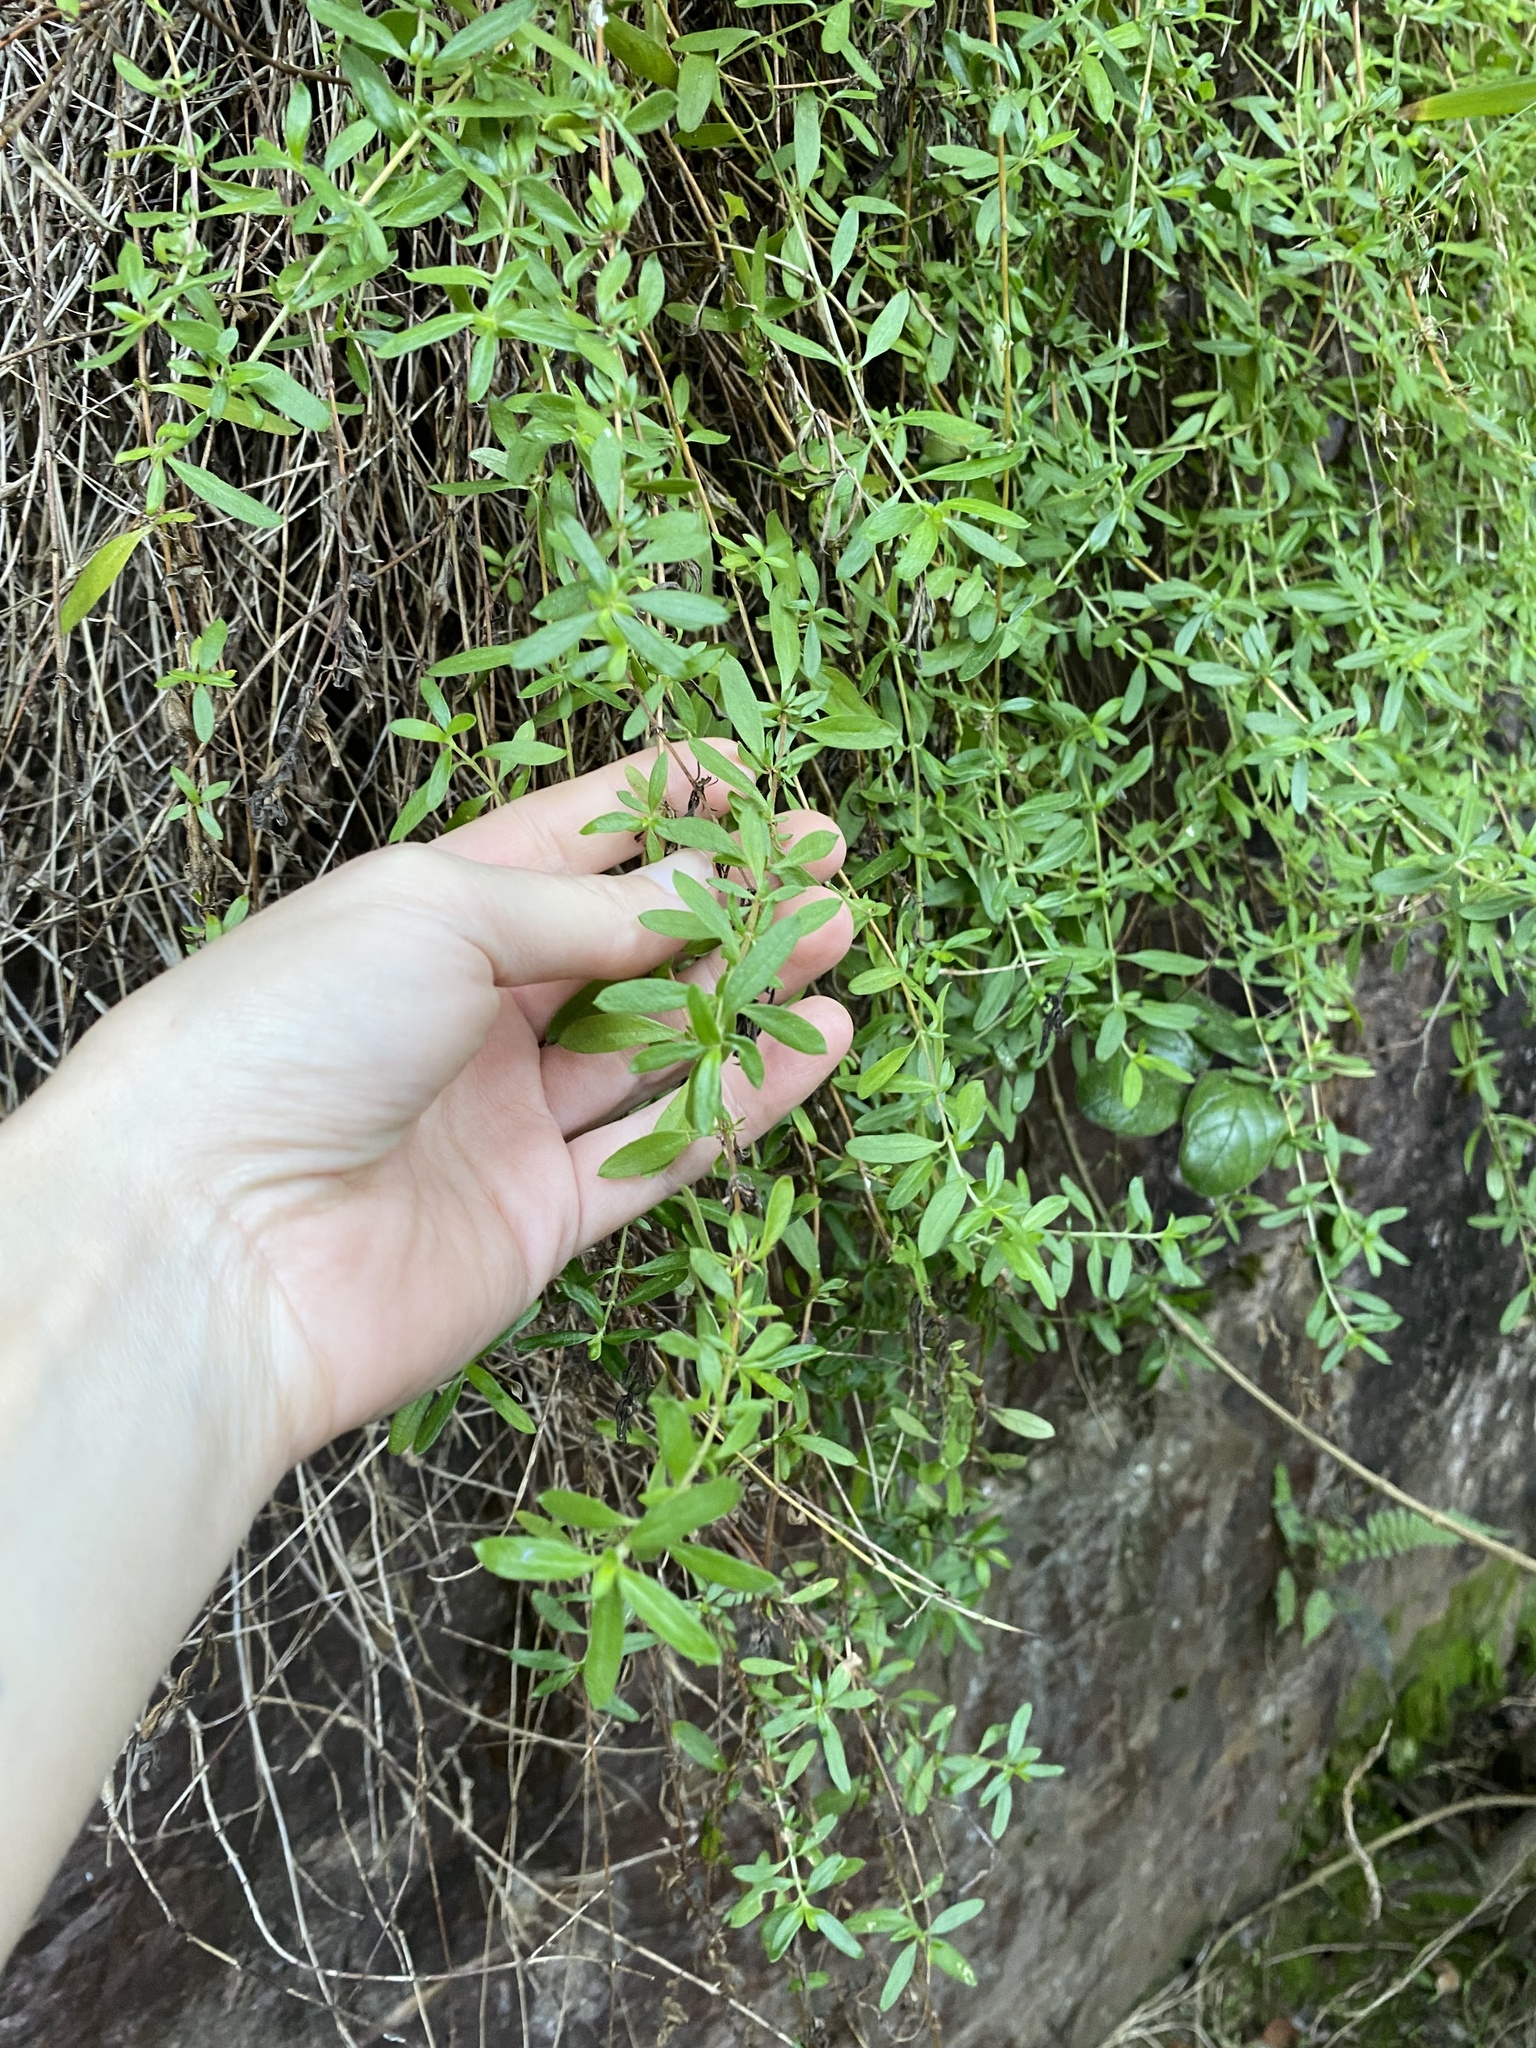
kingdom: Plantae
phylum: Tracheophyta
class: Magnoliopsida
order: Asterales
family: Asteraceae
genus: Erigeron
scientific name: Erigeron karvinskianus
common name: Mexican fleabane
